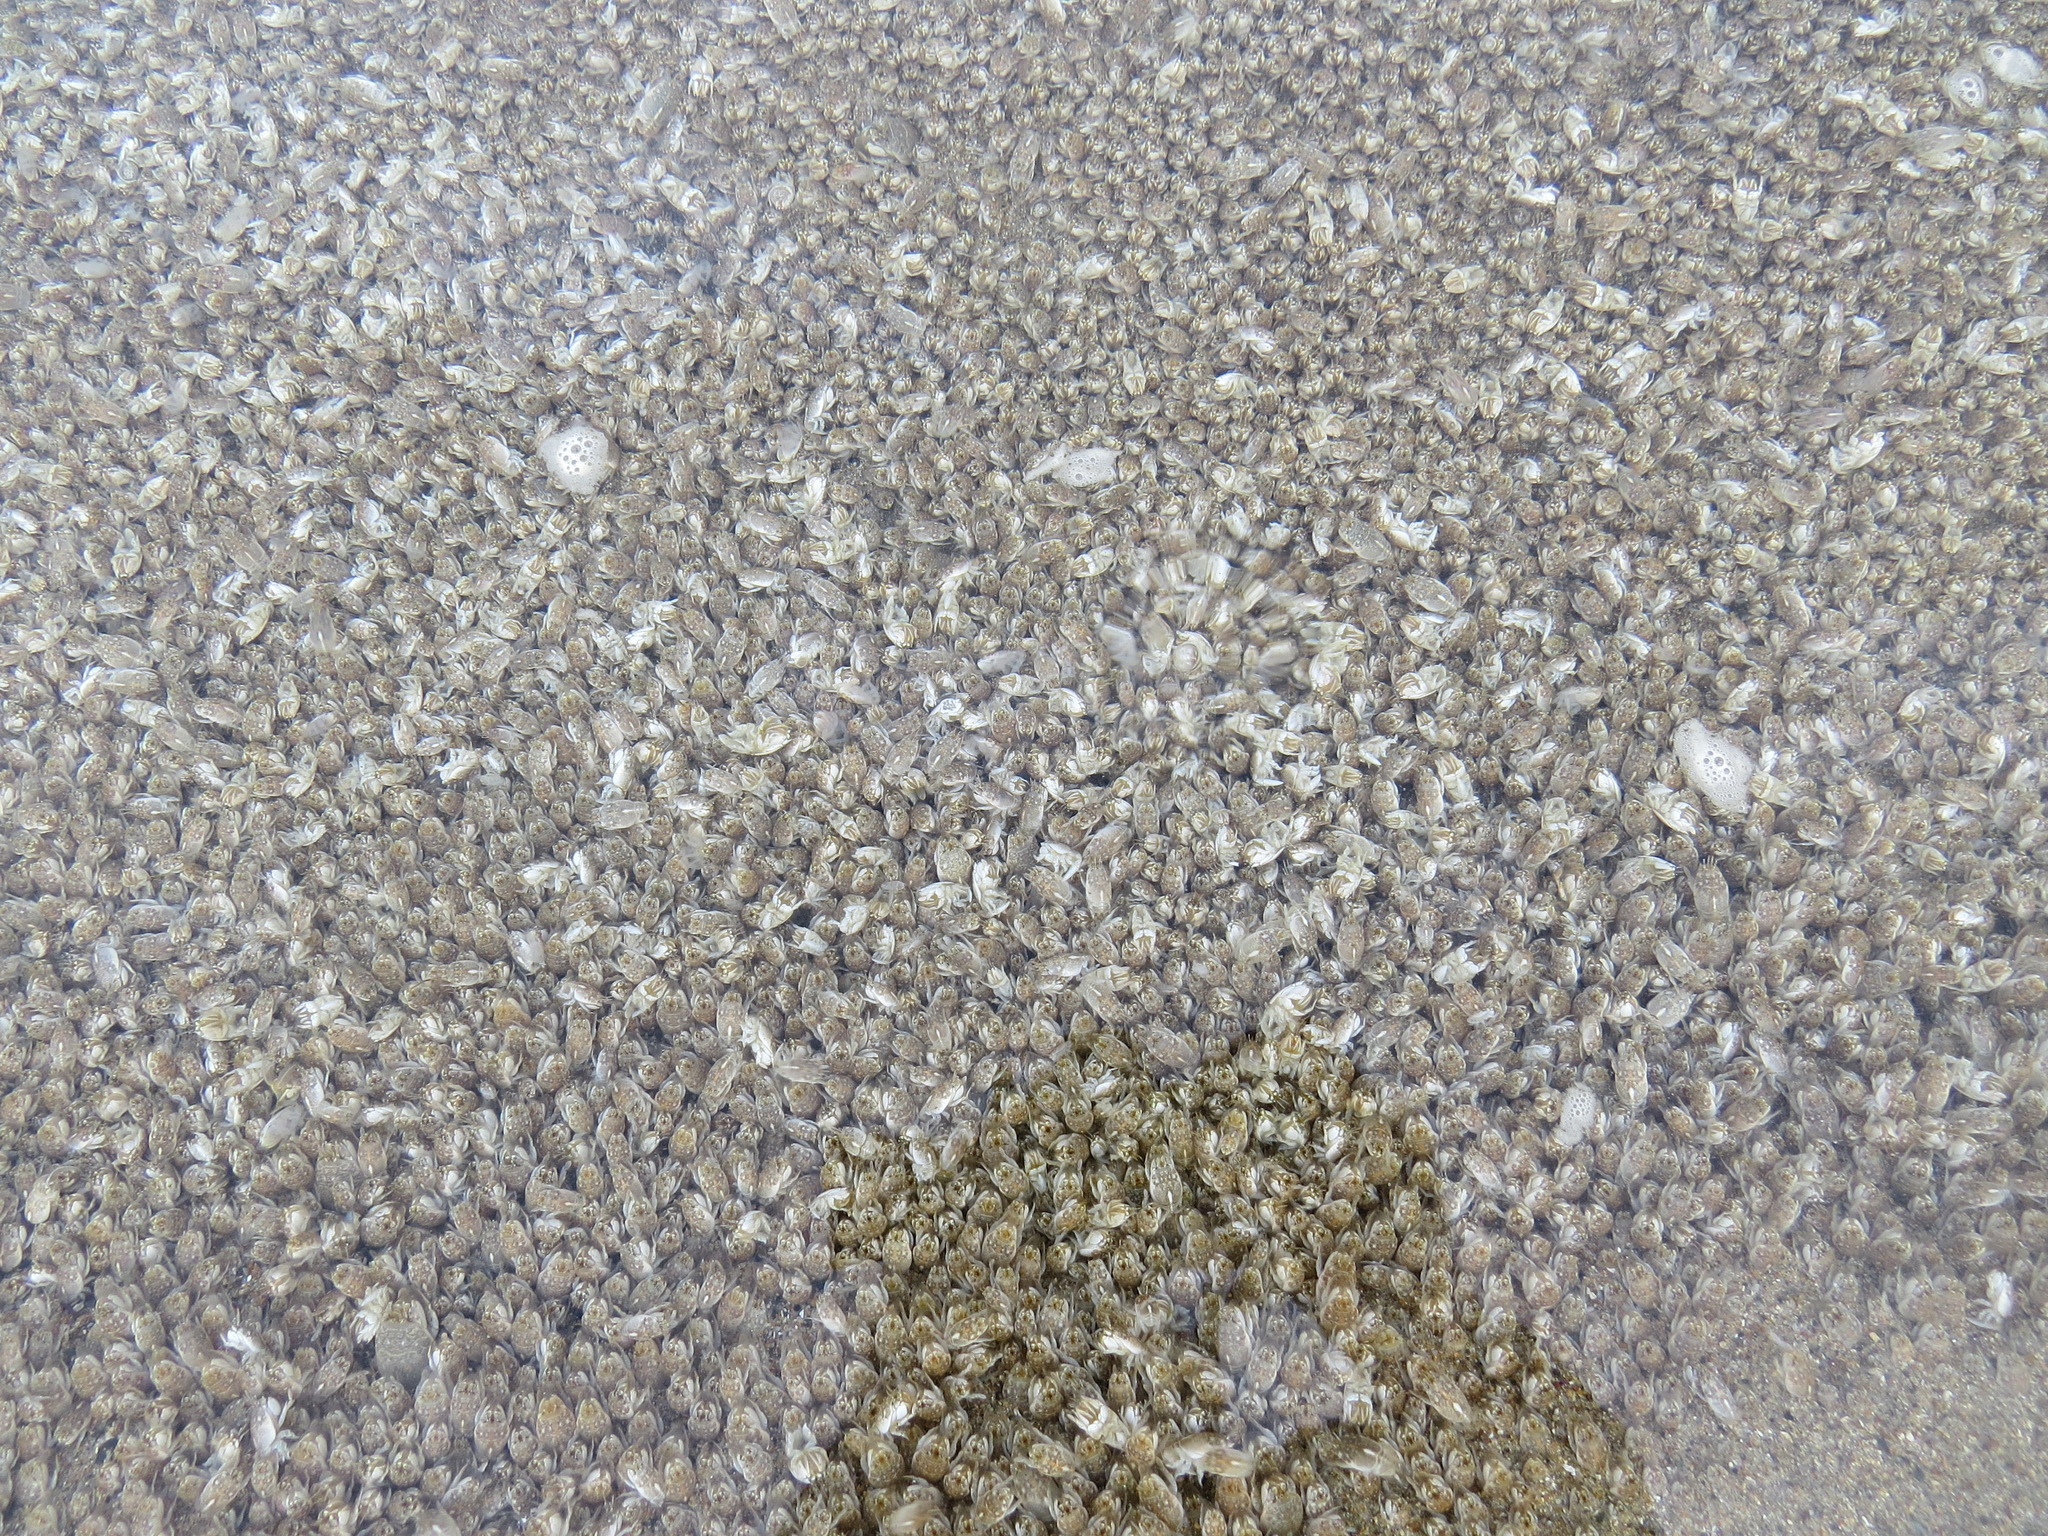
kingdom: Animalia
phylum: Arthropoda
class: Malacostraca
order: Decapoda
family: Hippidae
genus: Emerita
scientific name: Emerita analoga
